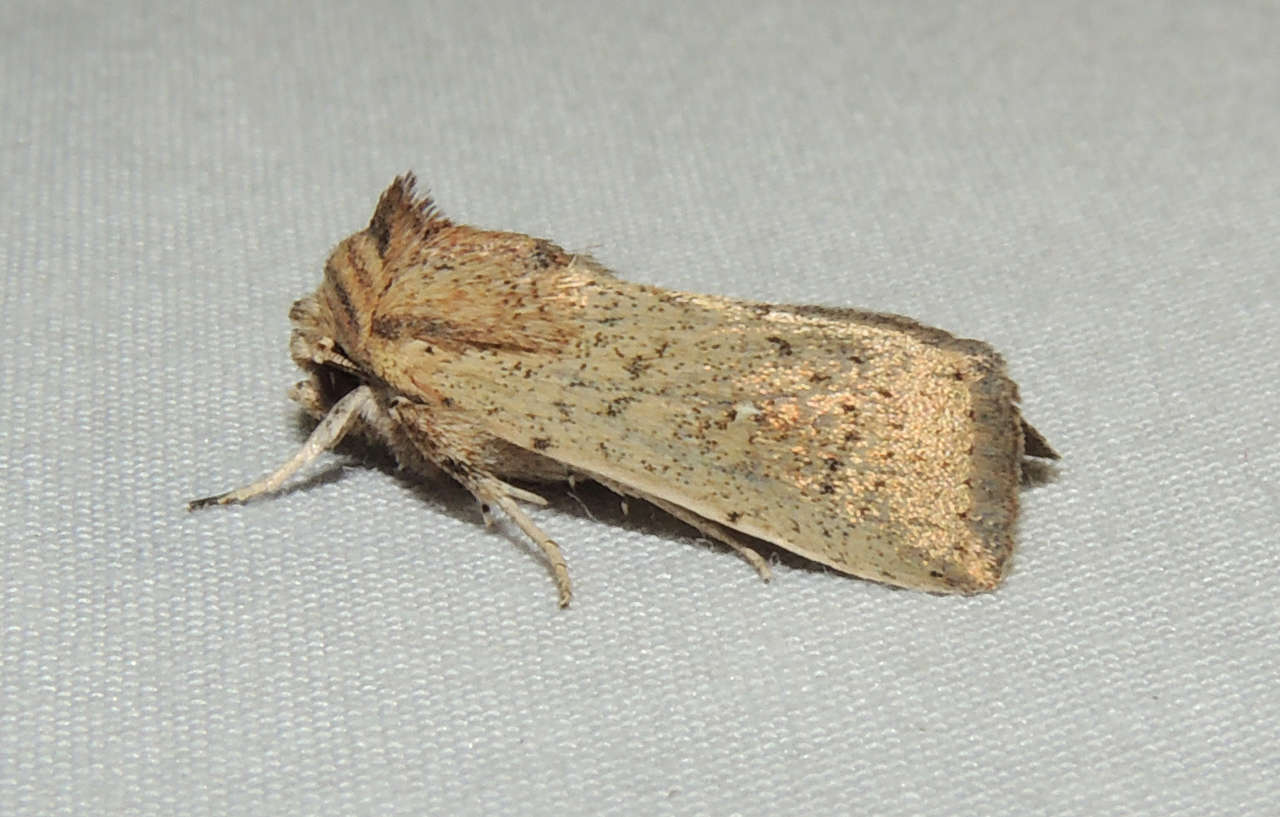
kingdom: Animalia
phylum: Arthropoda
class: Insecta
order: Lepidoptera
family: Noctuidae
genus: Leucania
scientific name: Leucania uda
